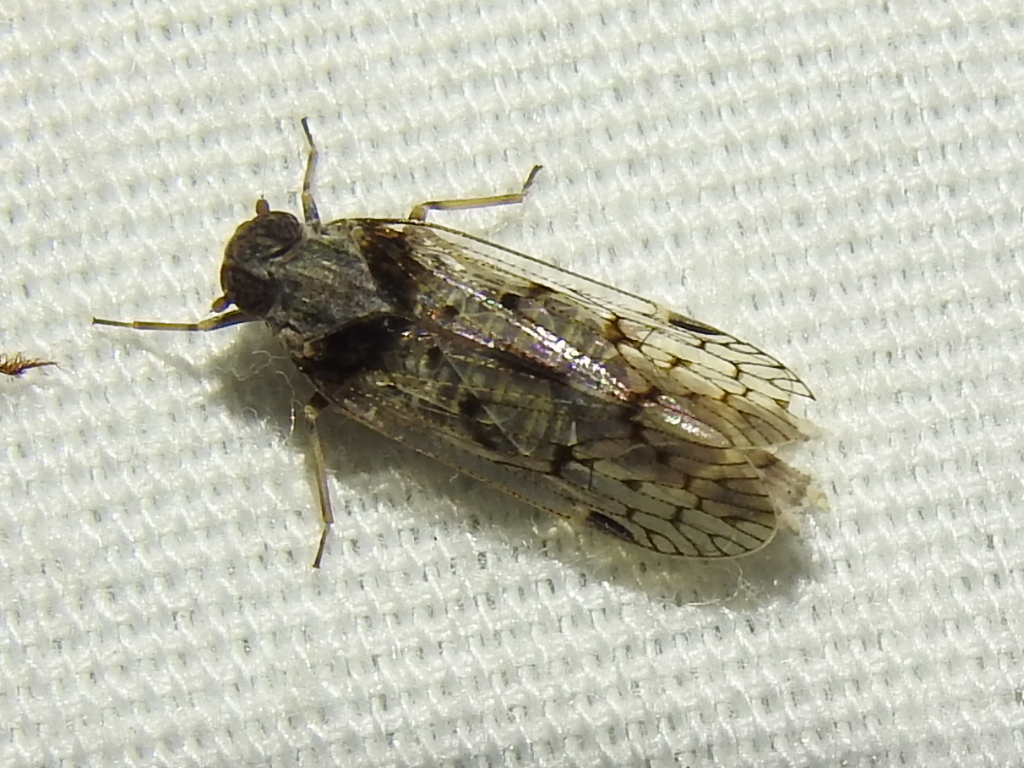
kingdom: Animalia
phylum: Arthropoda
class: Insecta
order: Hemiptera
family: Cixiidae
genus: Melanoliarus
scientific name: Melanoliarus aridus
